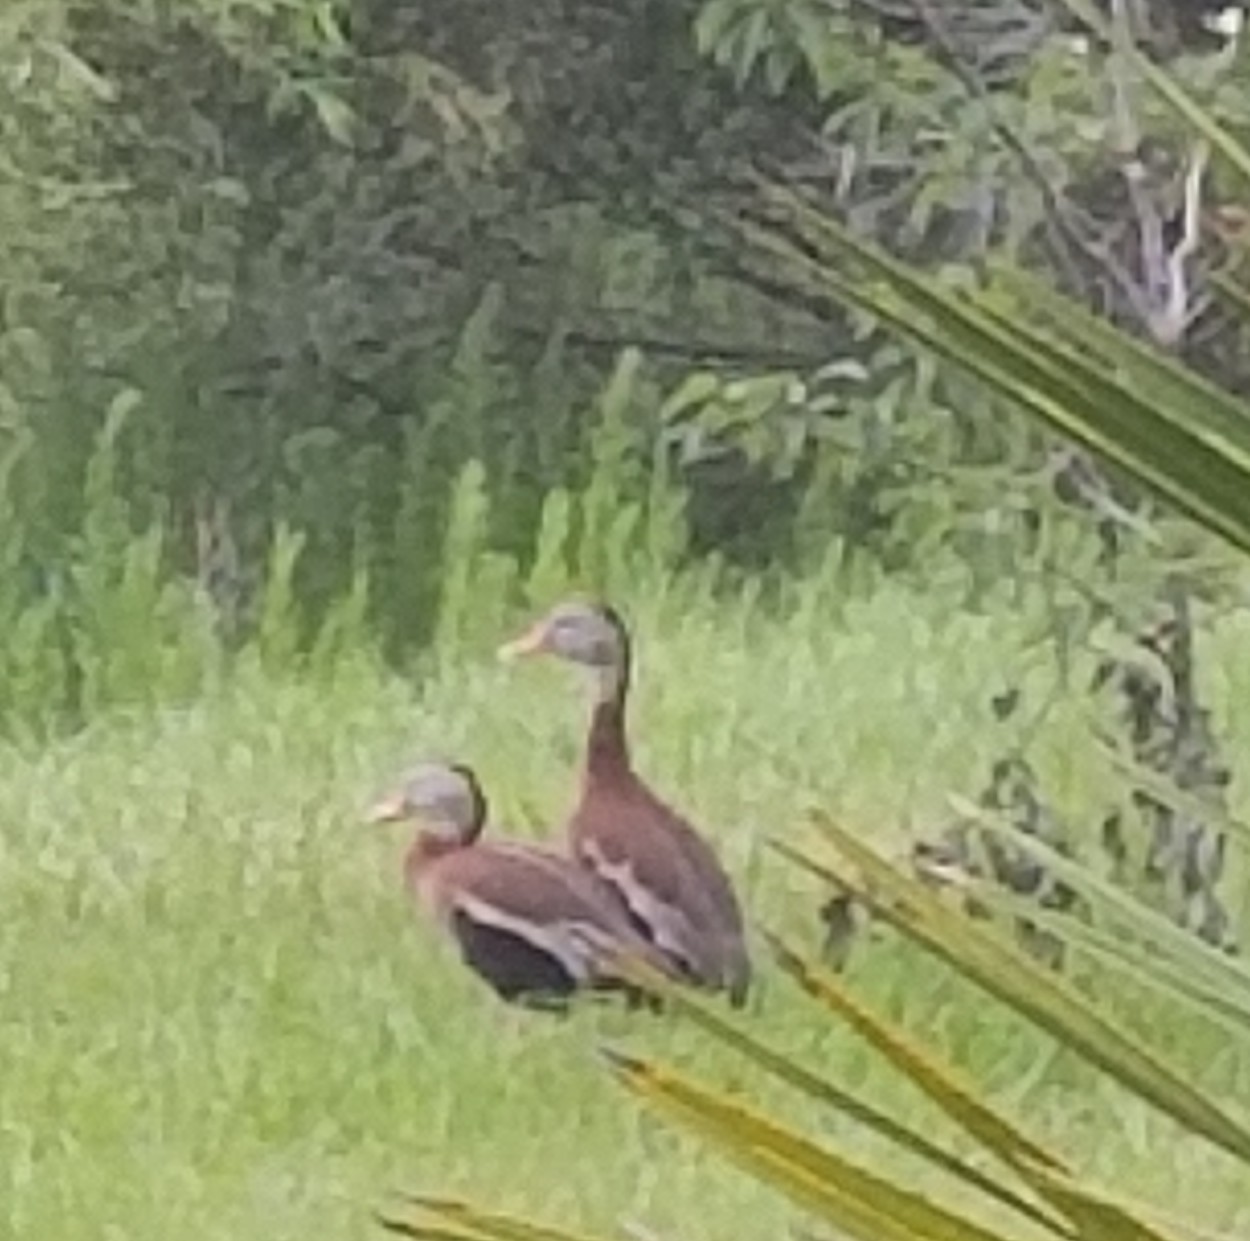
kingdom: Animalia
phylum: Chordata
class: Aves
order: Anseriformes
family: Anatidae
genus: Dendrocygna
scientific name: Dendrocygna autumnalis
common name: Black-bellied whistling duck
